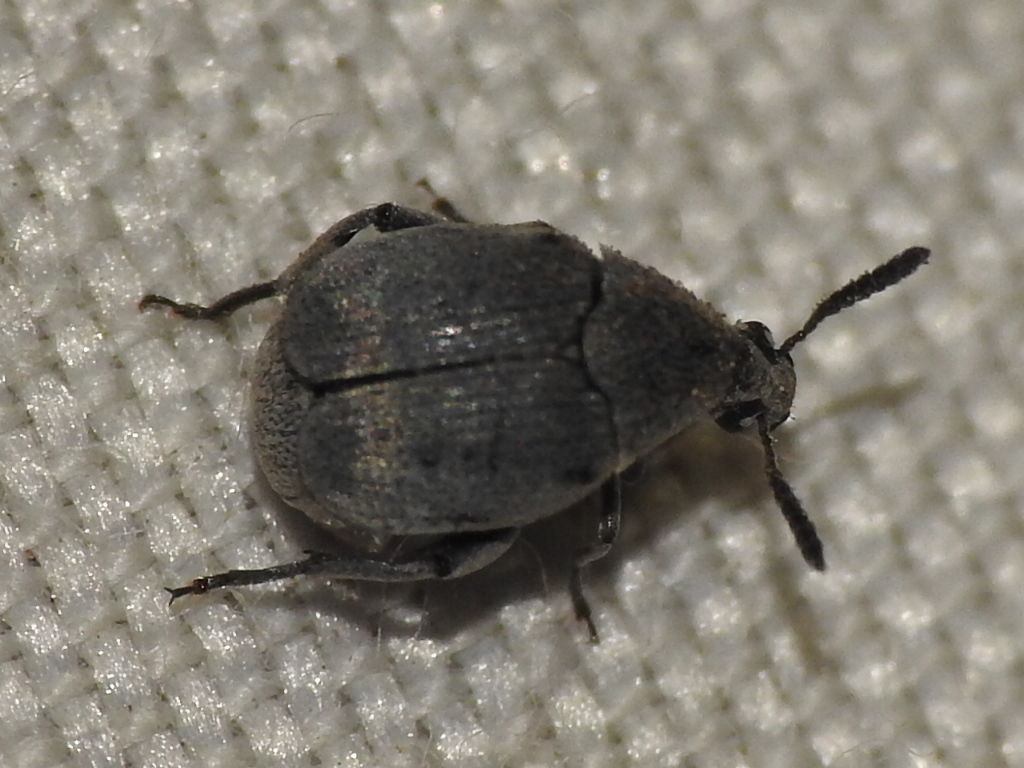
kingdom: Animalia
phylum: Arthropoda
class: Insecta
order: Coleoptera
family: Chrysomelidae
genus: Acanthoscelides
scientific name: Acanthoscelides compressicornis
